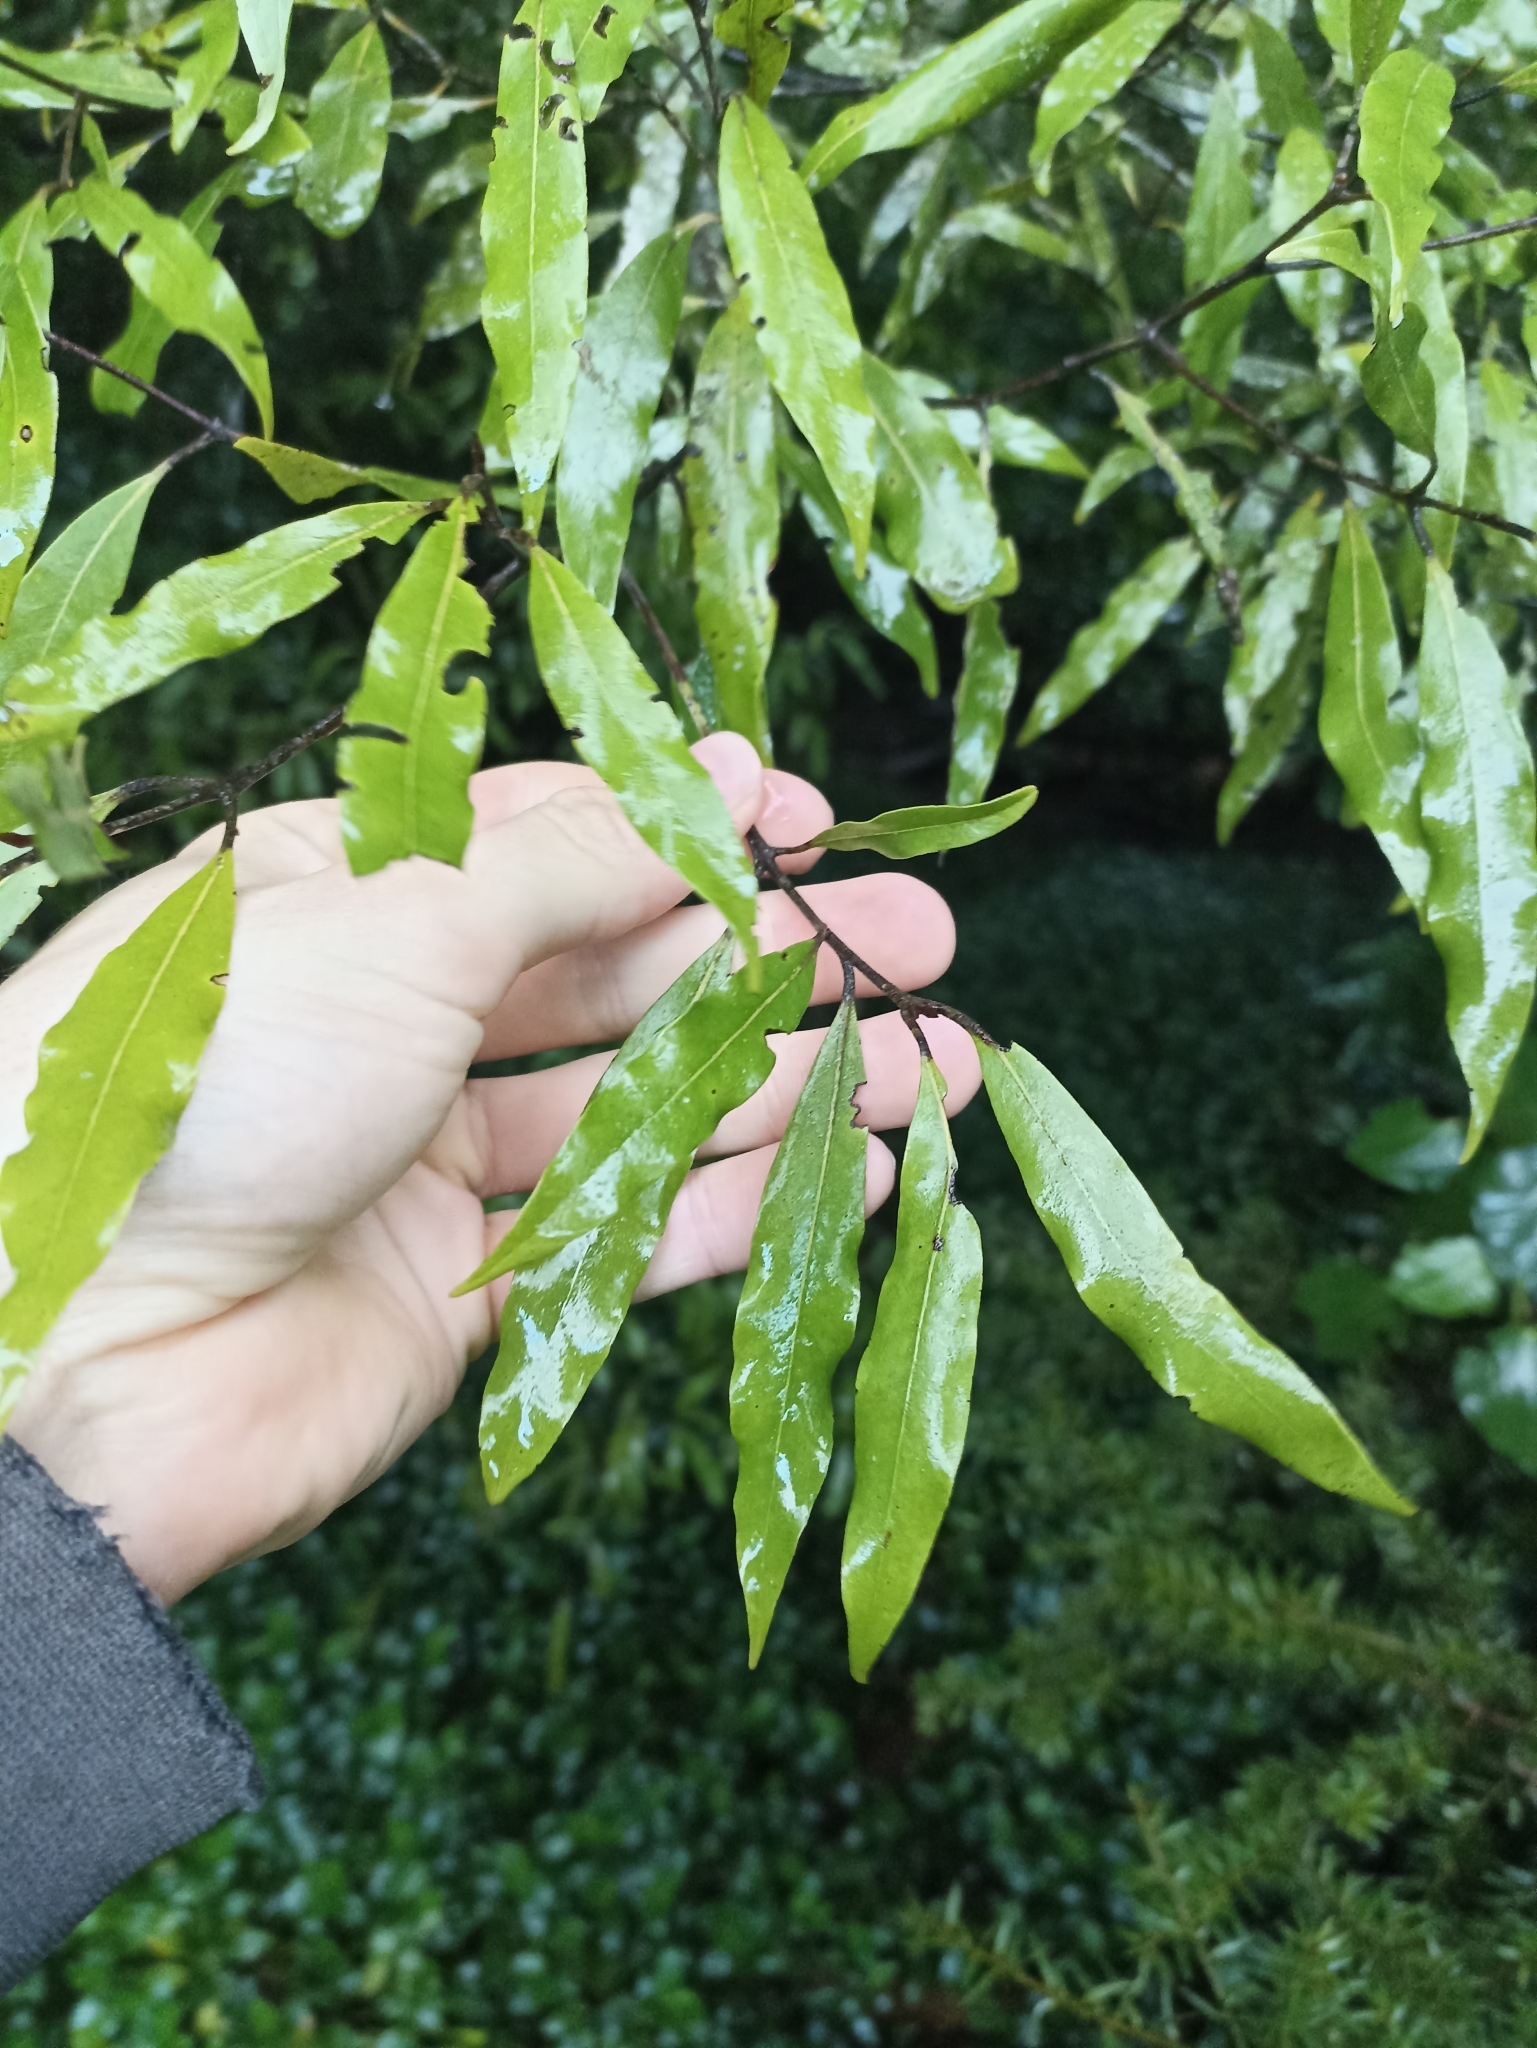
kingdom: Plantae
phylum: Tracheophyta
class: Magnoliopsida
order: Laurales
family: Lauraceae
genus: Beilschmiedia
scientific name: Beilschmiedia tawa
